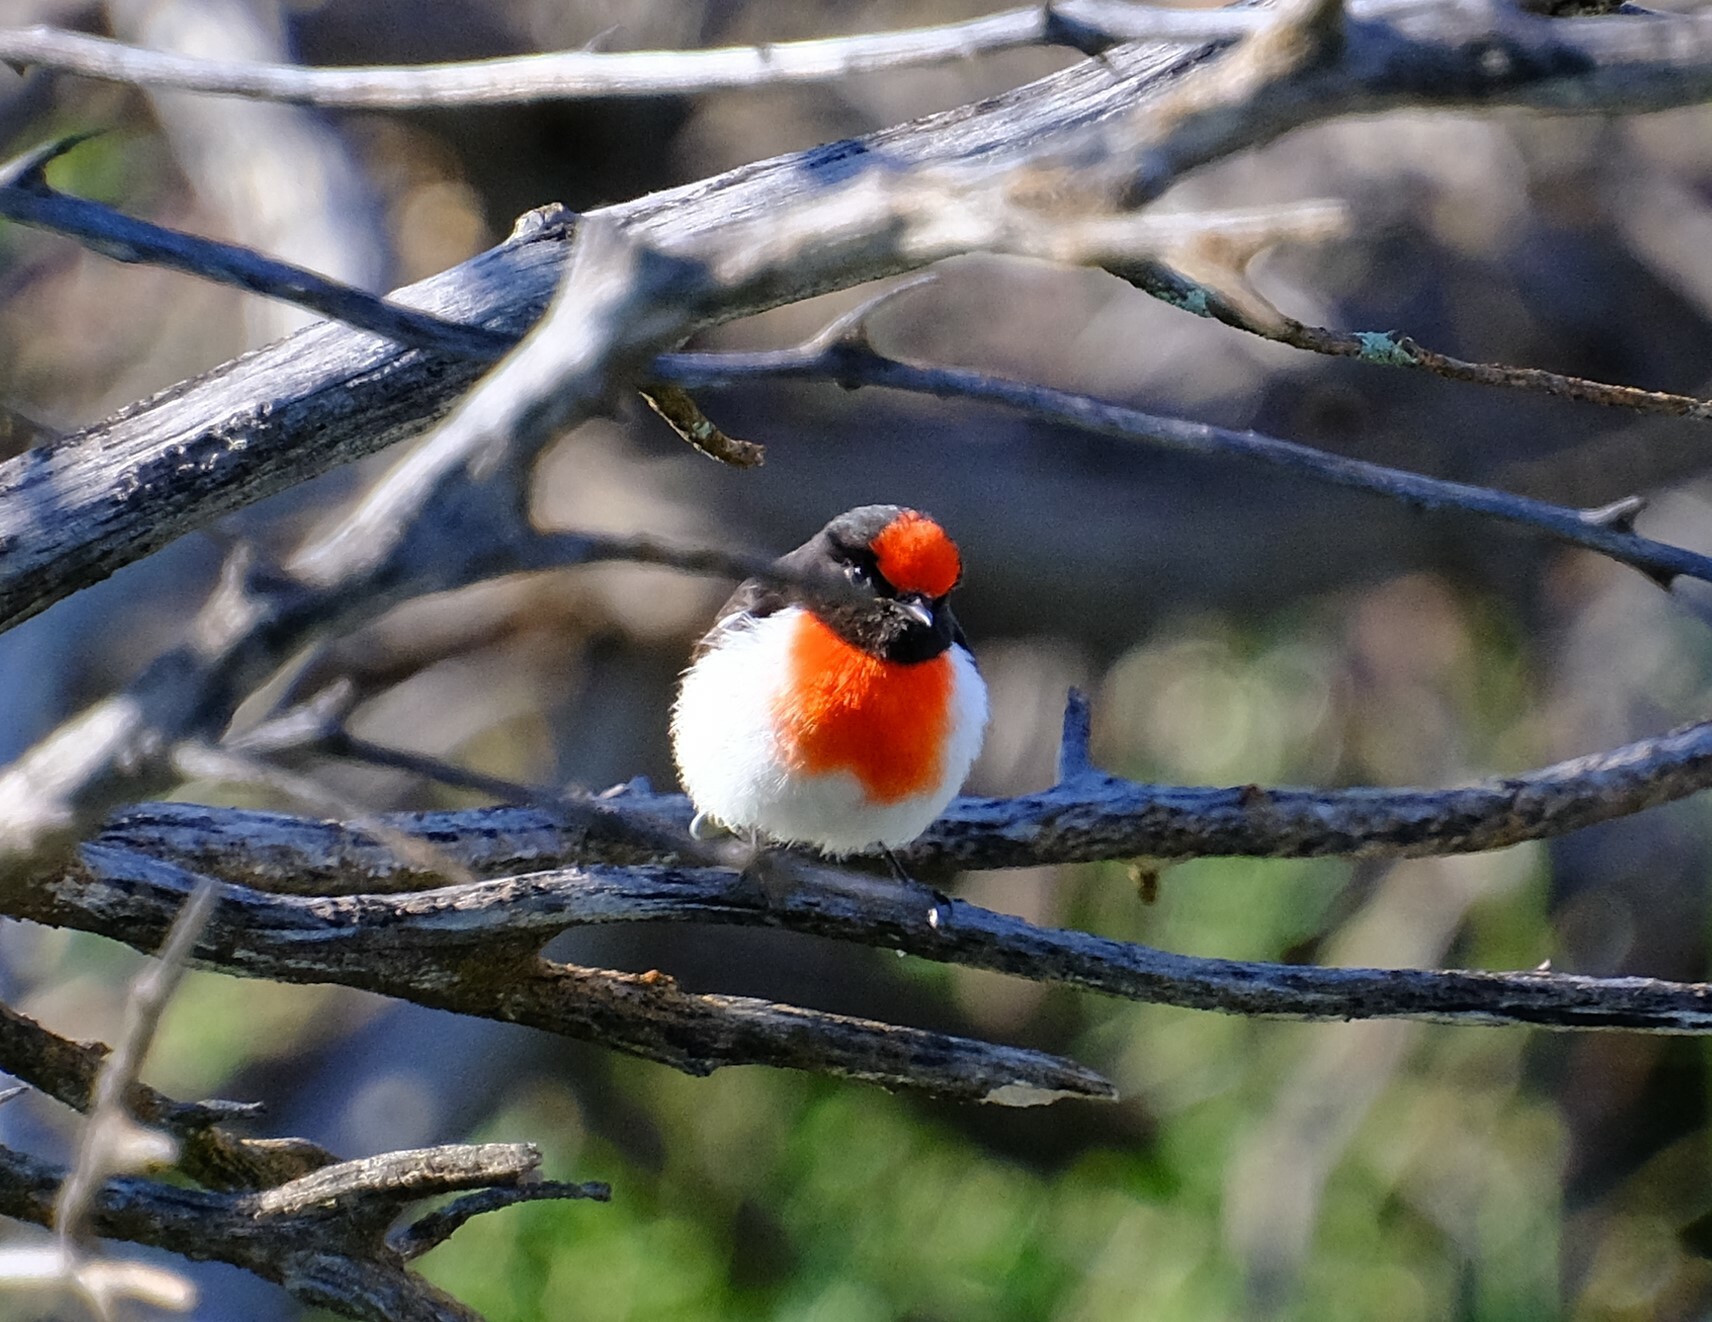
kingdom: Animalia
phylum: Chordata
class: Aves
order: Passeriformes
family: Petroicidae
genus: Petroica
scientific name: Petroica goodenovii
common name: Red-capped robin
